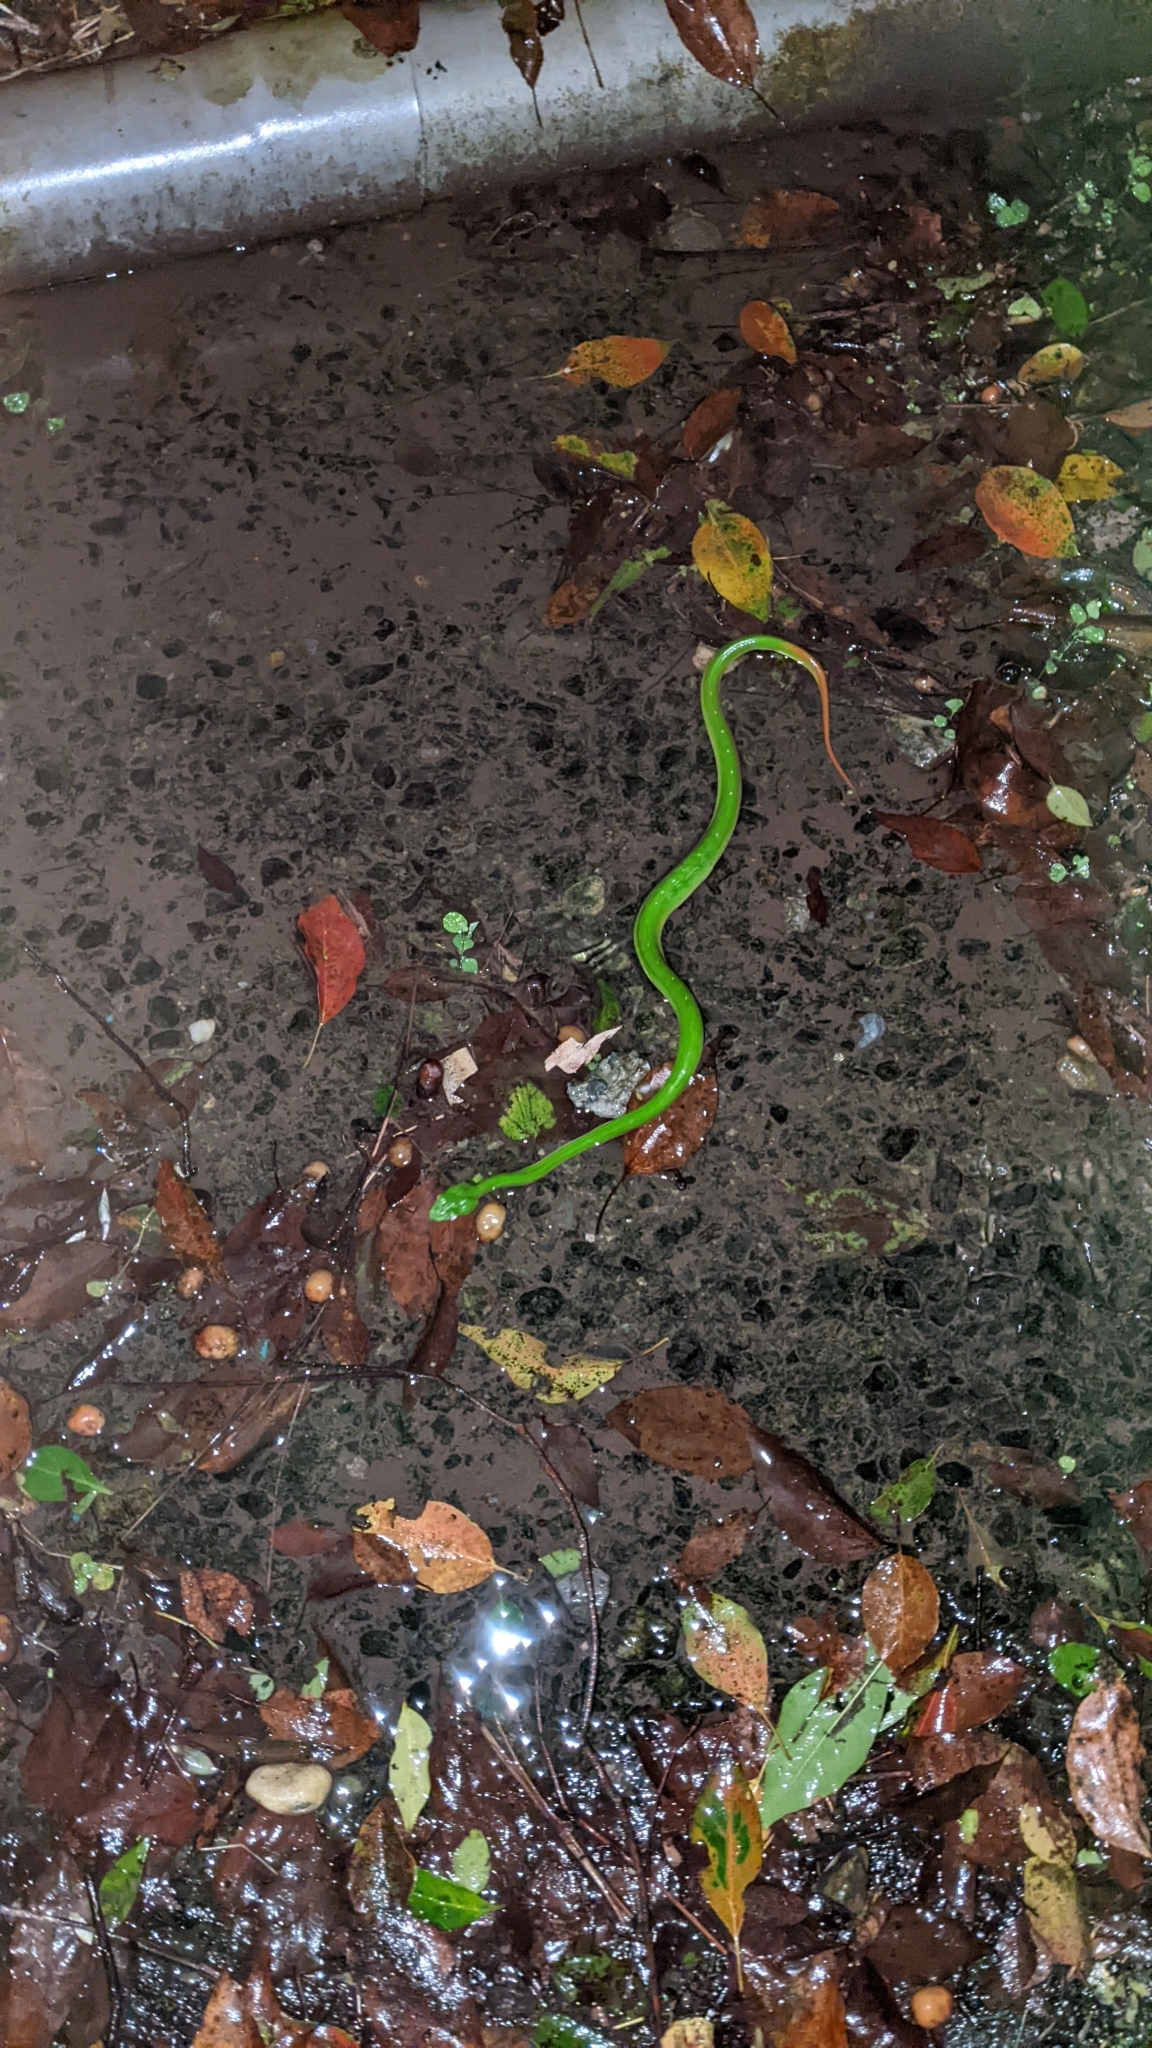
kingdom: Animalia
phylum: Chordata
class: Squamata
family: Viperidae
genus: Trimeresurus
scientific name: Trimeresurus stejnegeri
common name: Chen’s bamboo pit viper
